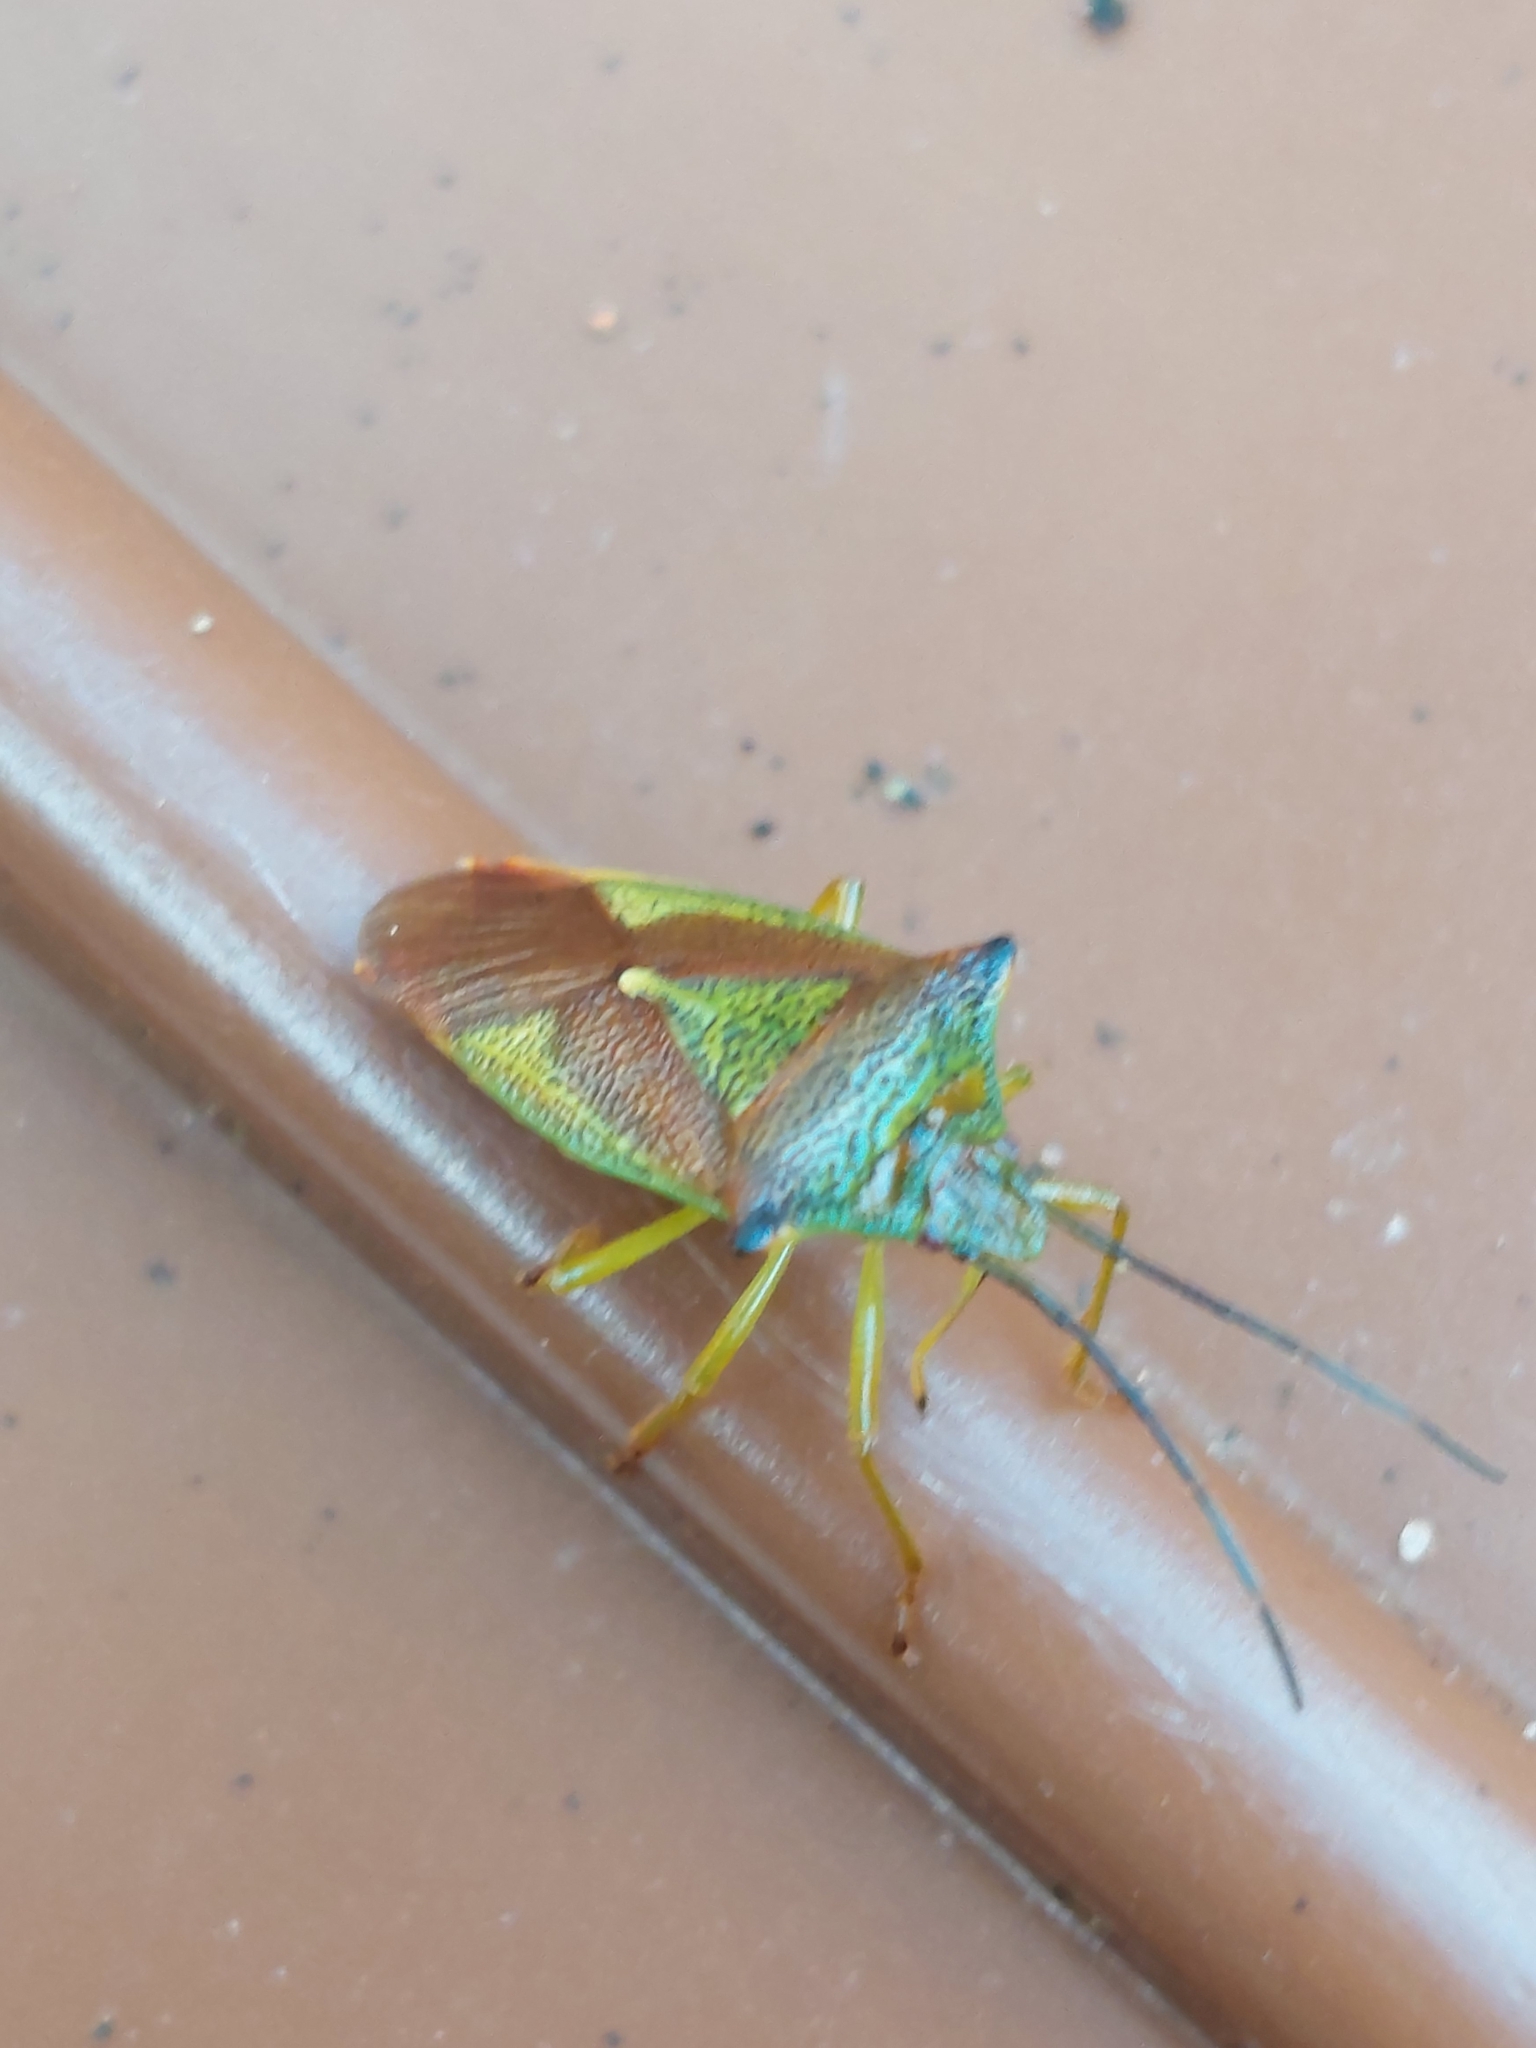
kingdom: Animalia
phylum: Arthropoda
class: Insecta
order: Hemiptera
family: Acanthosomatidae
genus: Acanthosoma
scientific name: Acanthosoma haemorrhoidale
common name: Hawthorn shieldbug
